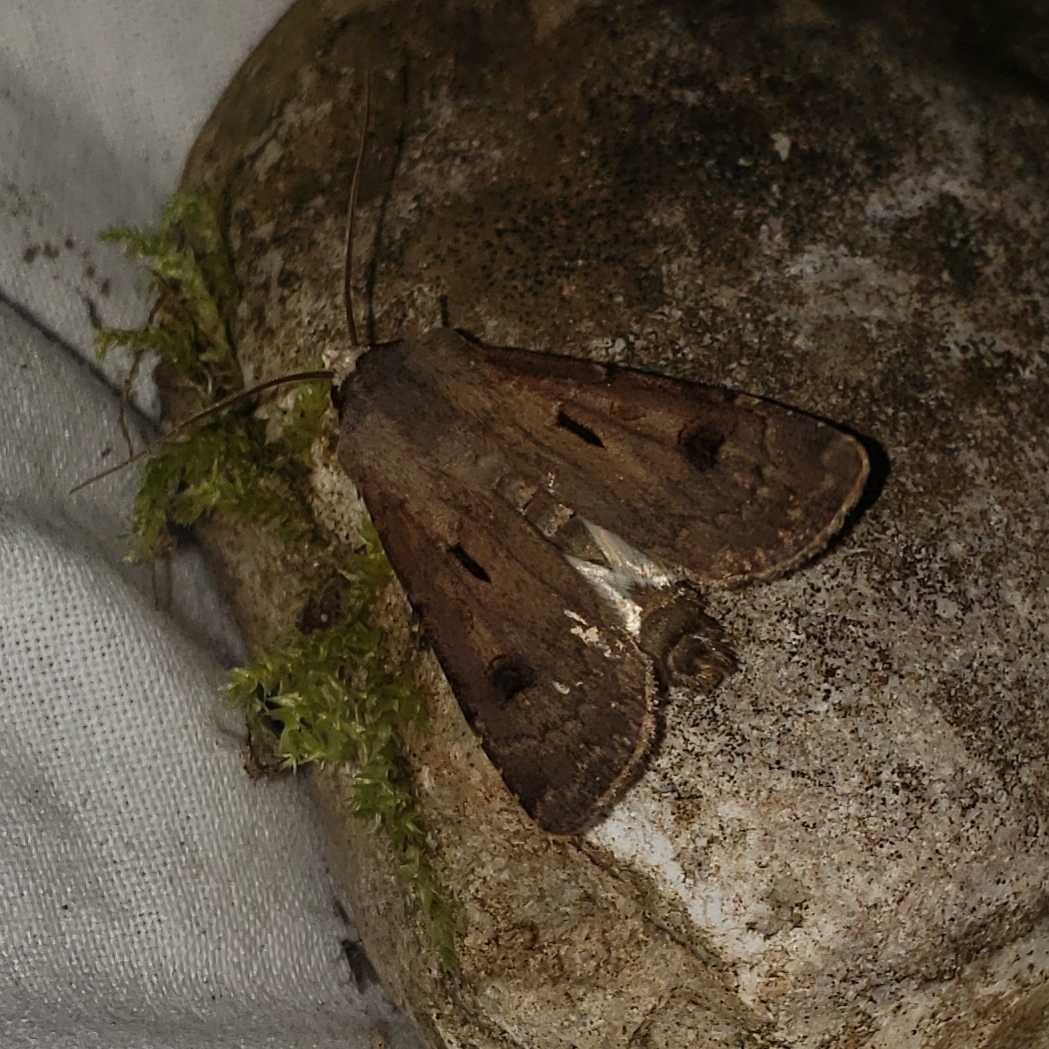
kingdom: Animalia
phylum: Arthropoda
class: Insecta
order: Lepidoptera
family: Noctuidae
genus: Agrotis
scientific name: Agrotis exclamationis
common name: Heart and dart
